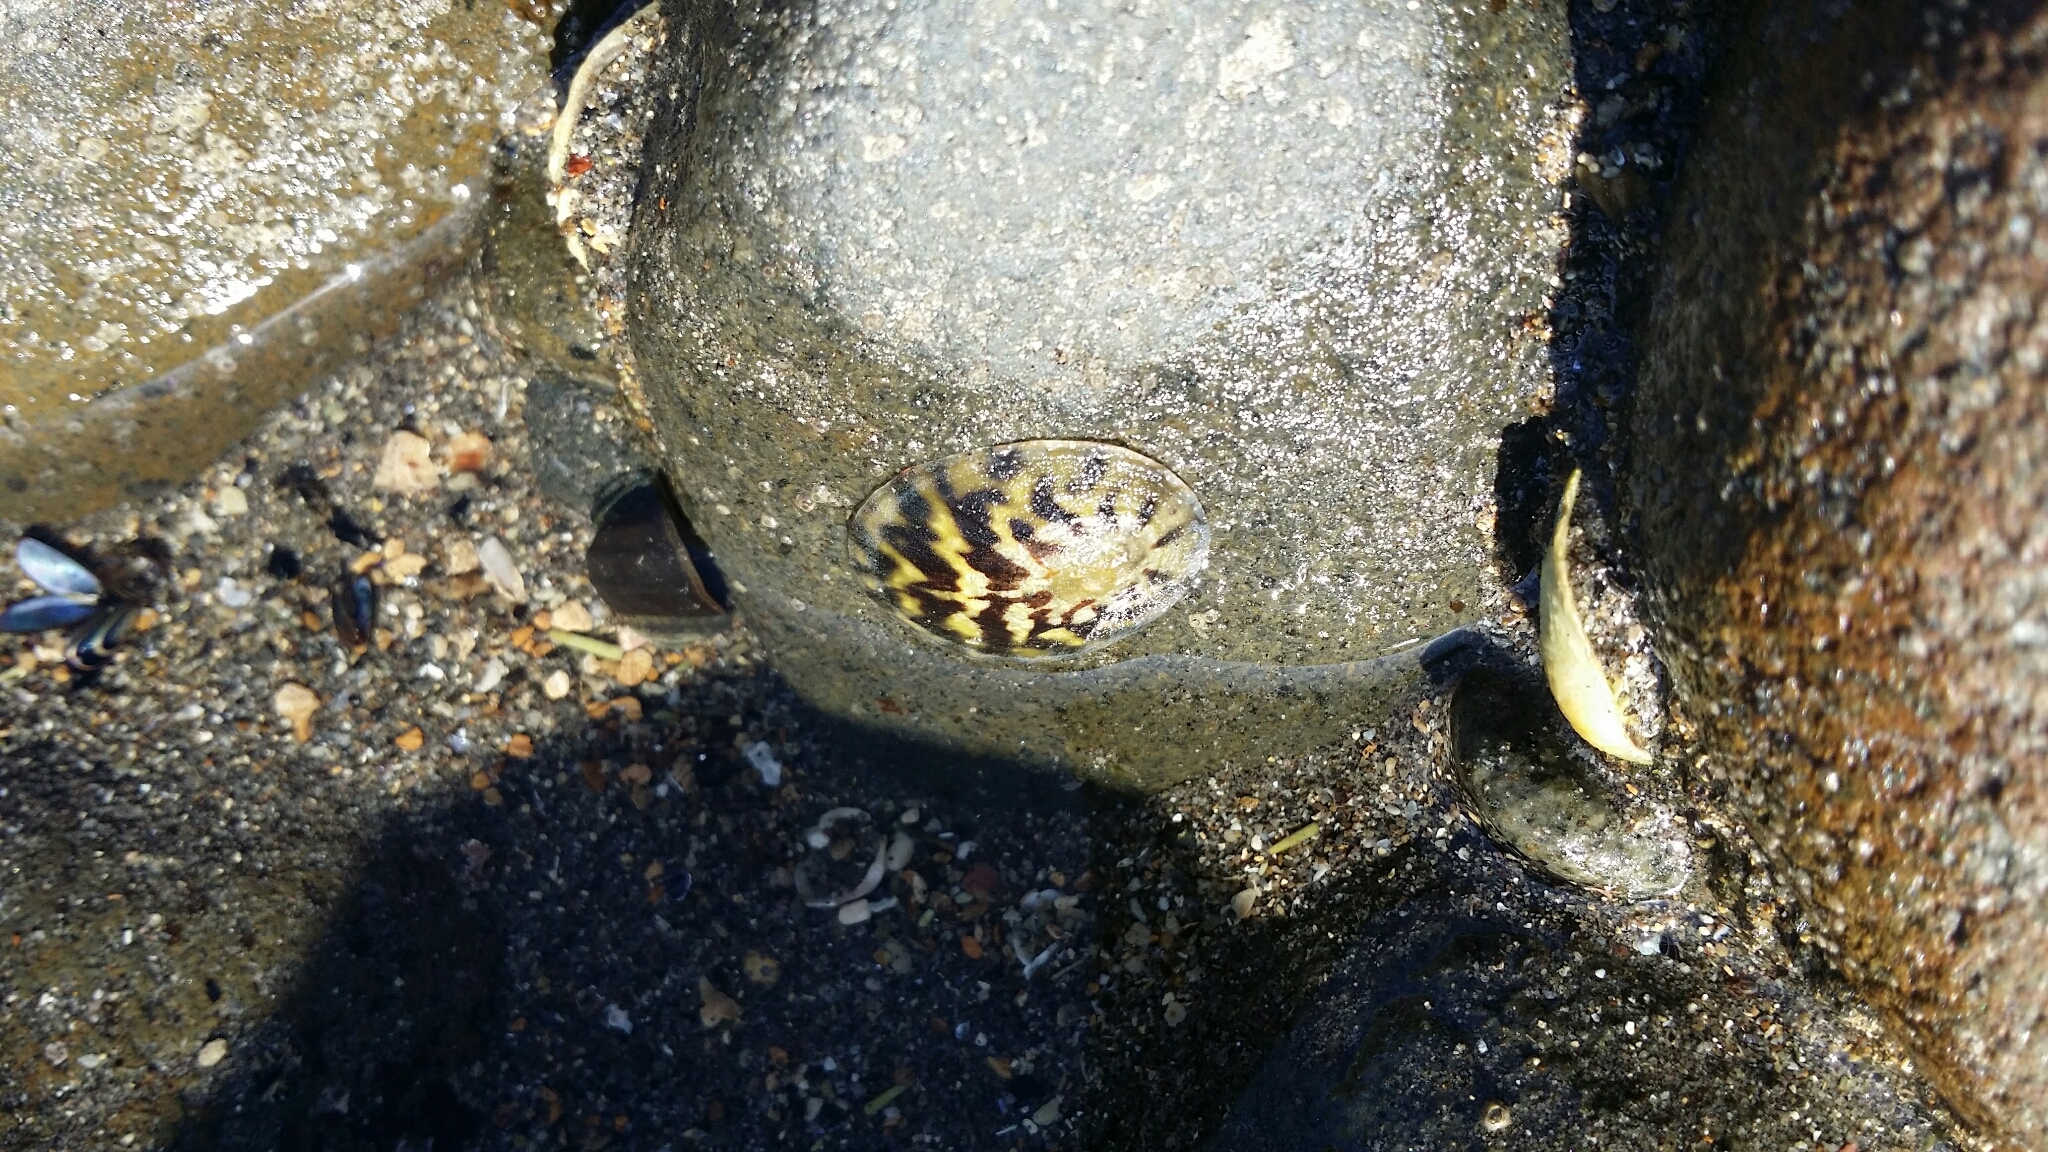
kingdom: Animalia
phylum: Mollusca
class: Gastropoda
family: Nacellidae
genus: Cellana
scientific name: Cellana radians
